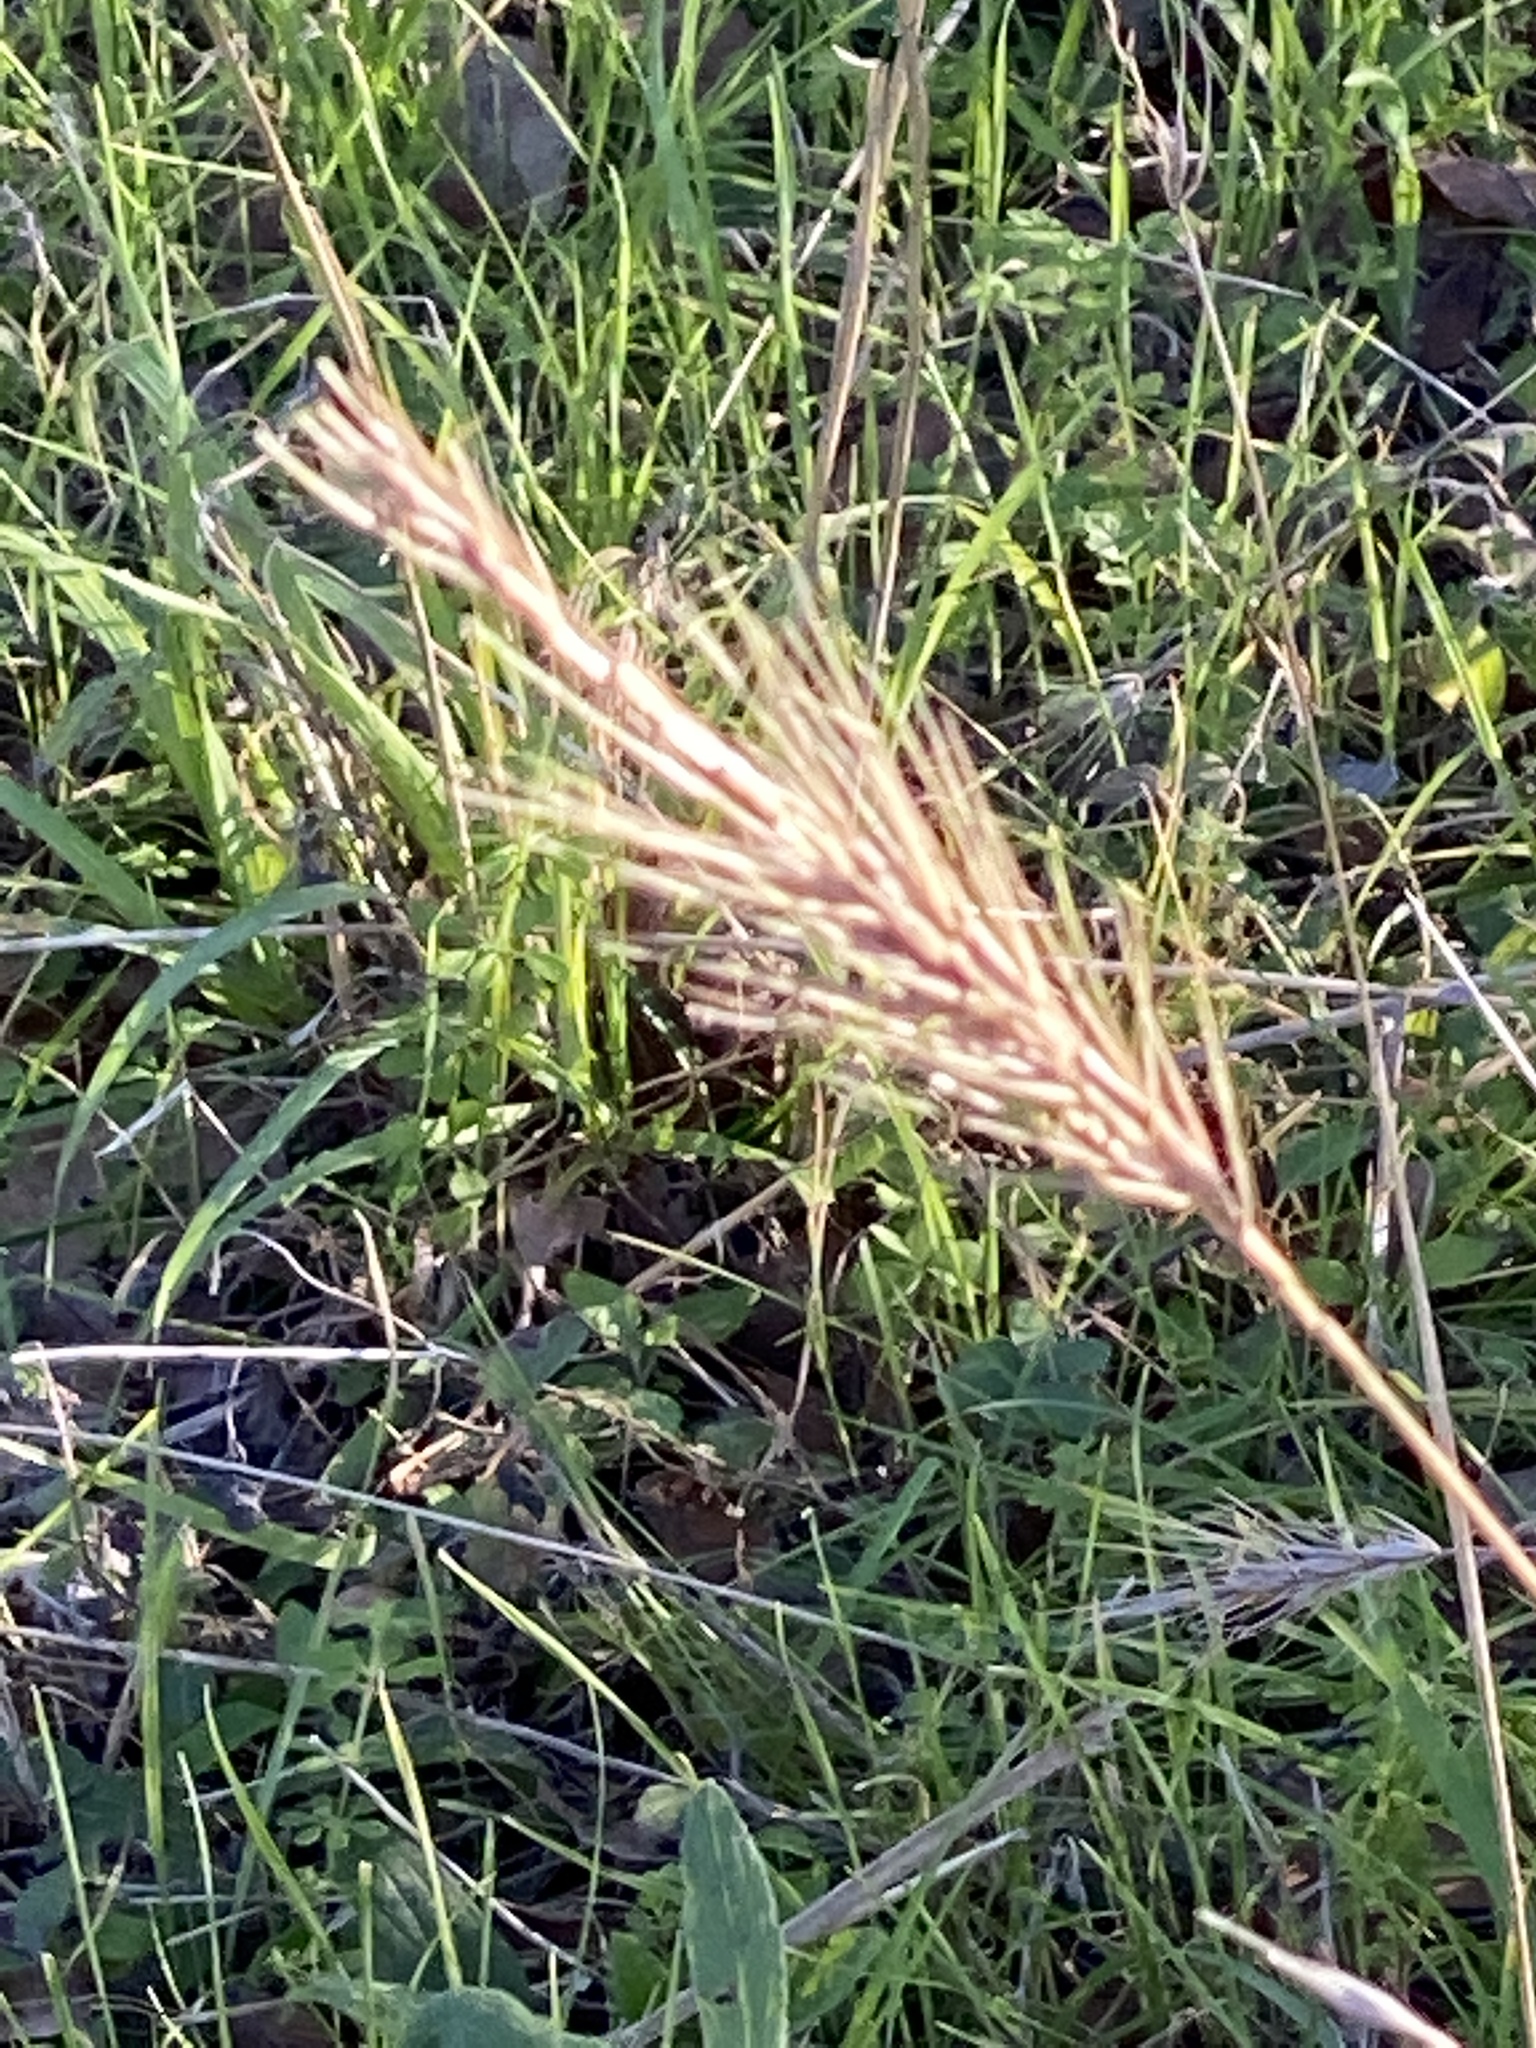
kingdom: Plantae
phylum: Tracheophyta
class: Liliopsida
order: Poales
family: Poaceae
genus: Elymus
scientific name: Elymus virginicus
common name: Common eastern wildrye
